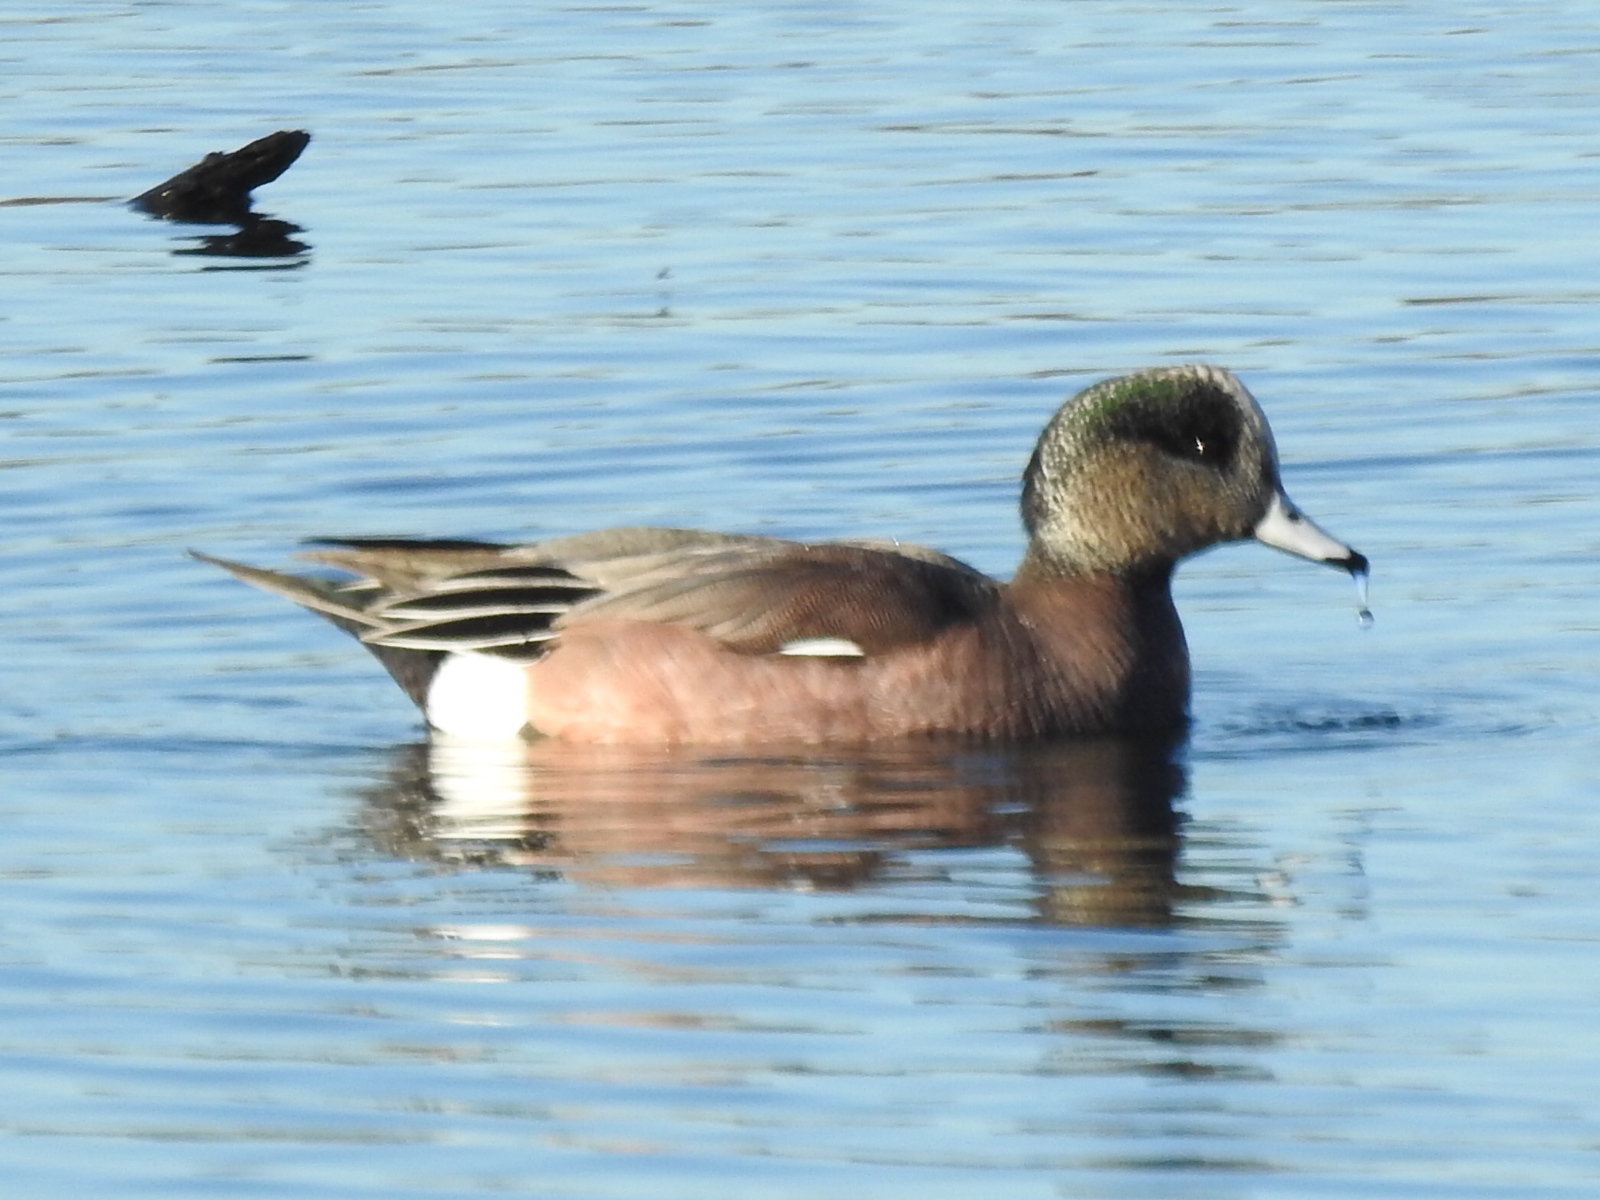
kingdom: Animalia
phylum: Chordata
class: Aves
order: Anseriformes
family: Anatidae
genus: Mareca
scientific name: Mareca americana
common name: American wigeon
